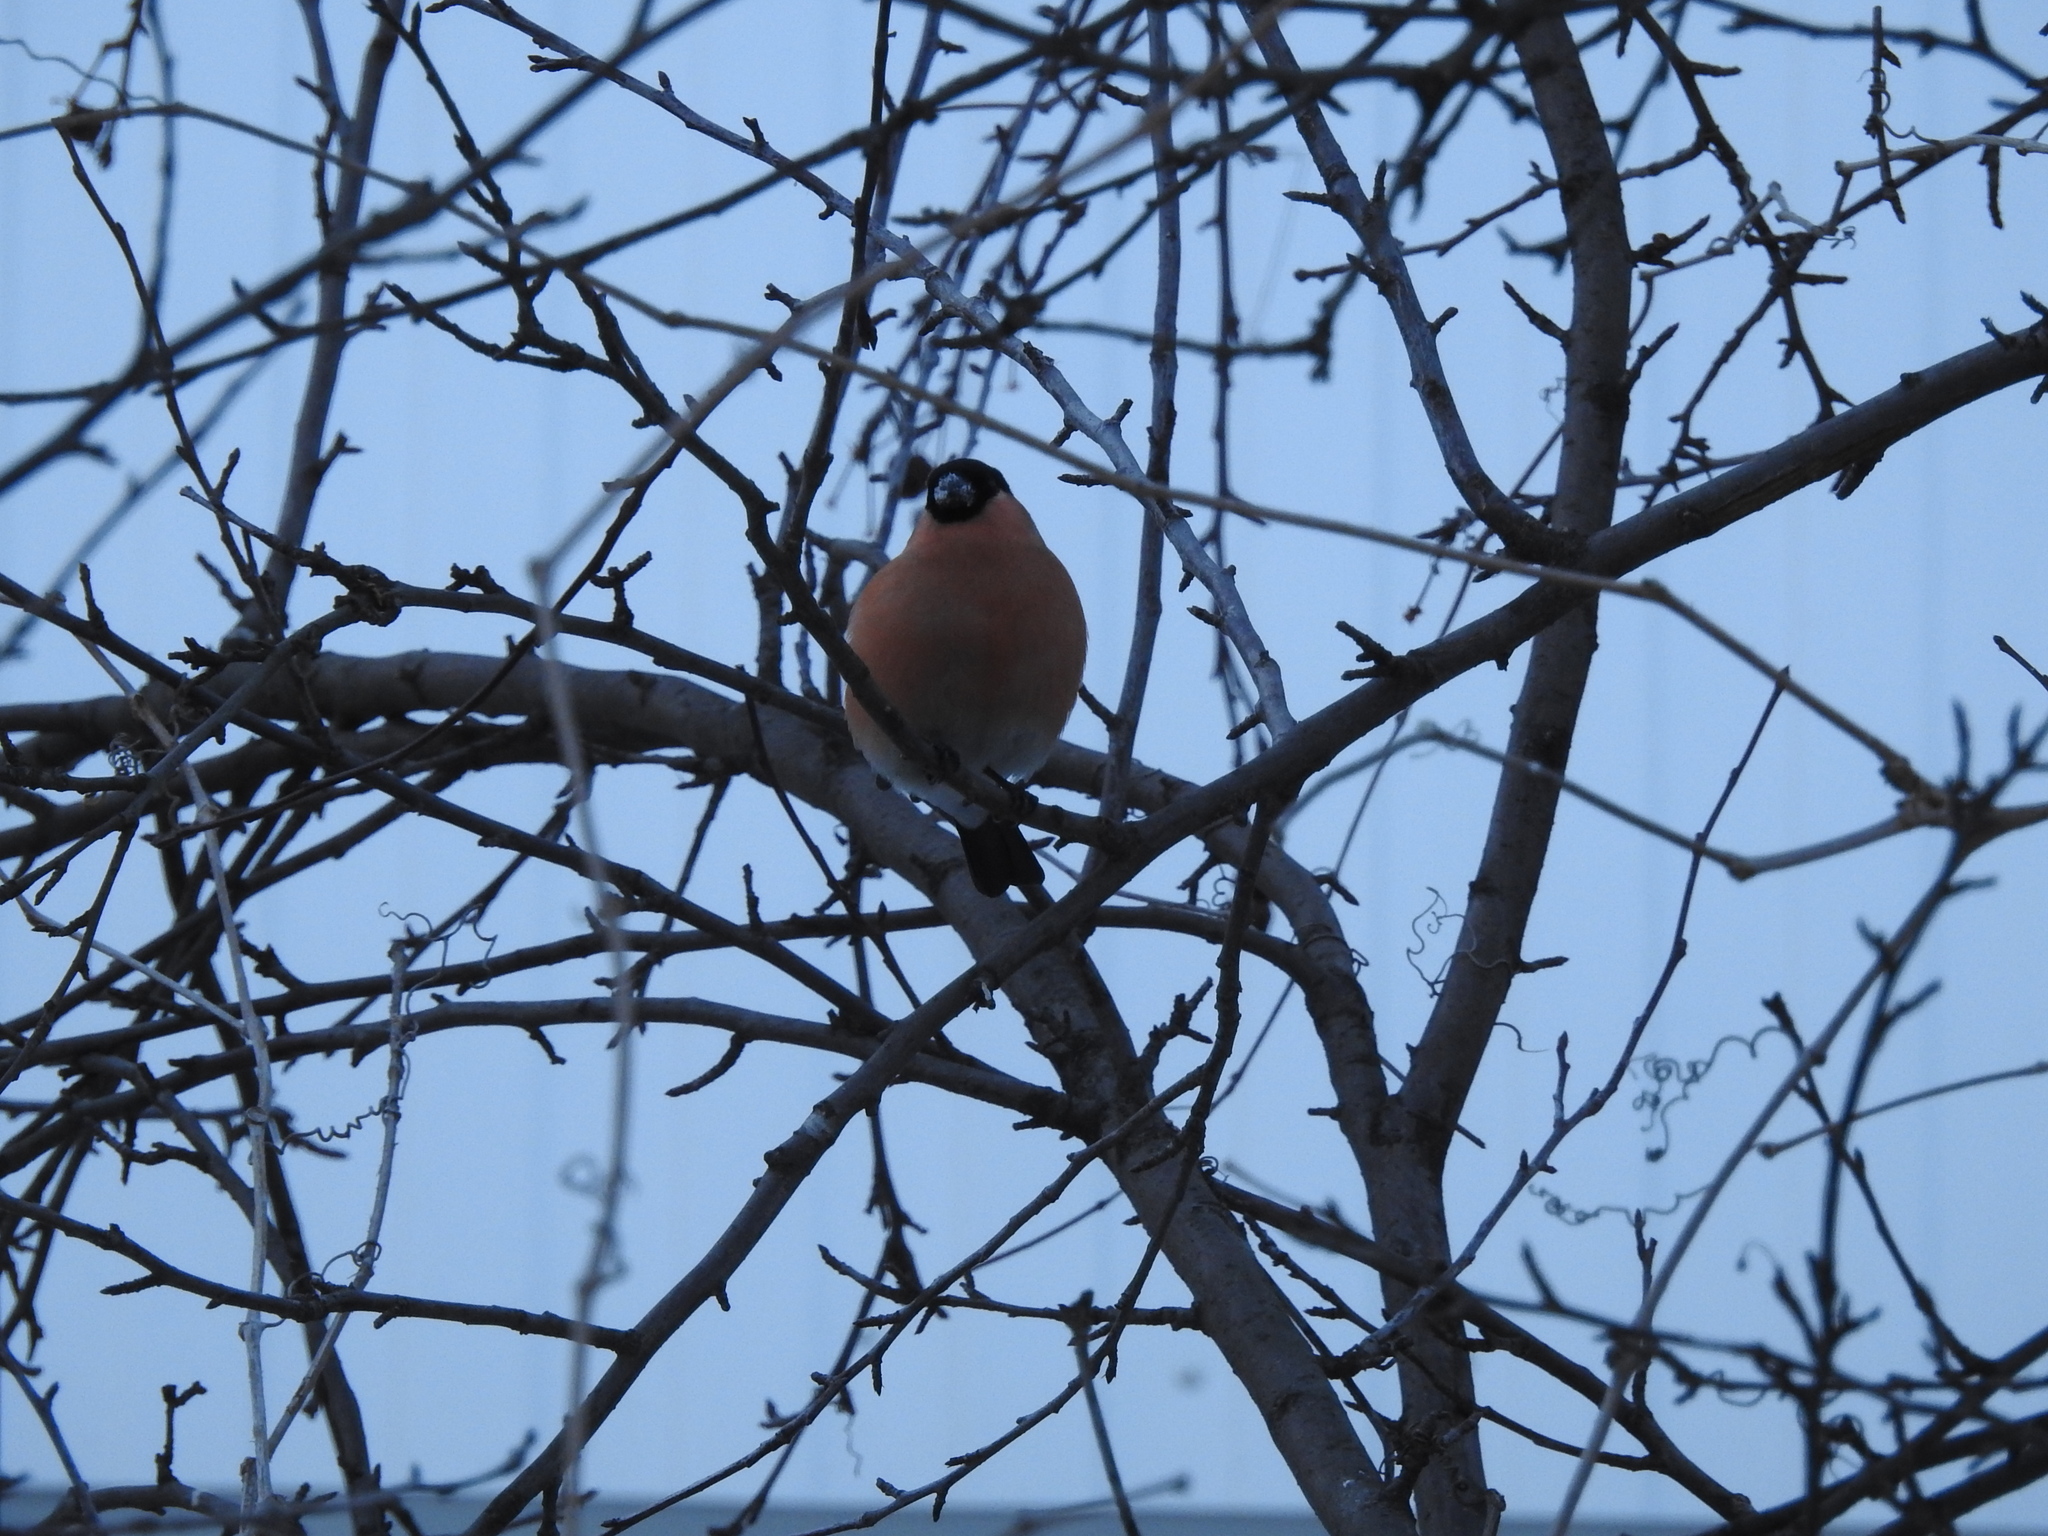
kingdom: Animalia
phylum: Chordata
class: Aves
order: Passeriformes
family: Fringillidae
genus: Pyrrhula
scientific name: Pyrrhula pyrrhula
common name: Eurasian bullfinch
